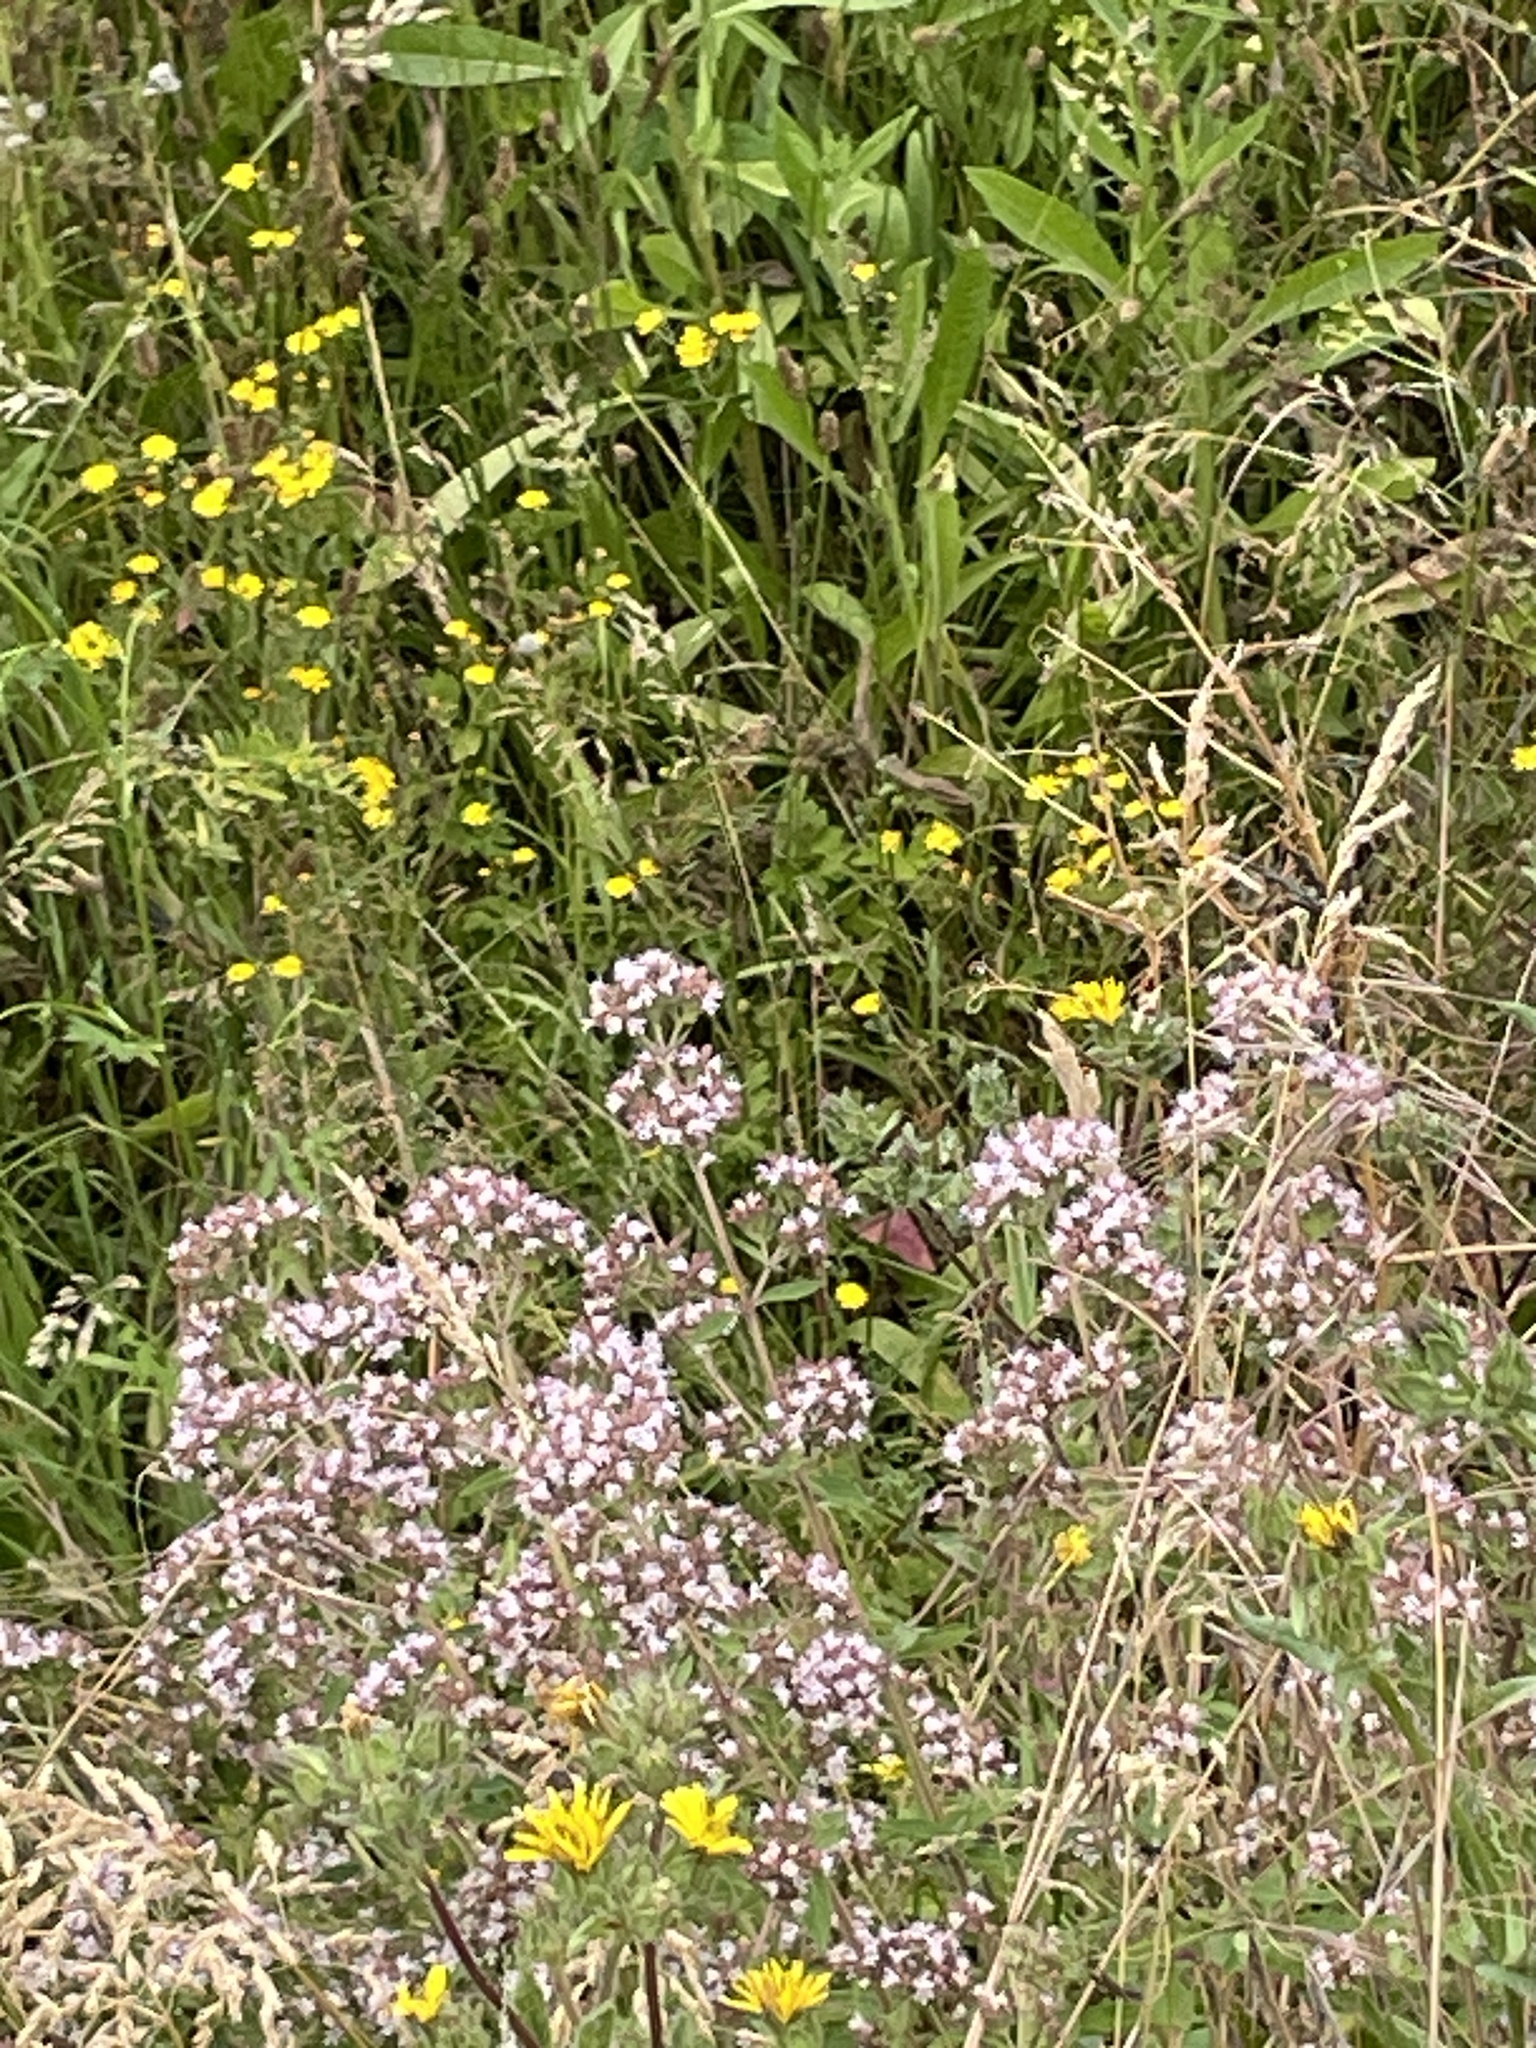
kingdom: Plantae
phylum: Tracheophyta
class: Magnoliopsida
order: Lamiales
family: Lamiaceae
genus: Origanum
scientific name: Origanum vulgare
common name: Wild marjoram
